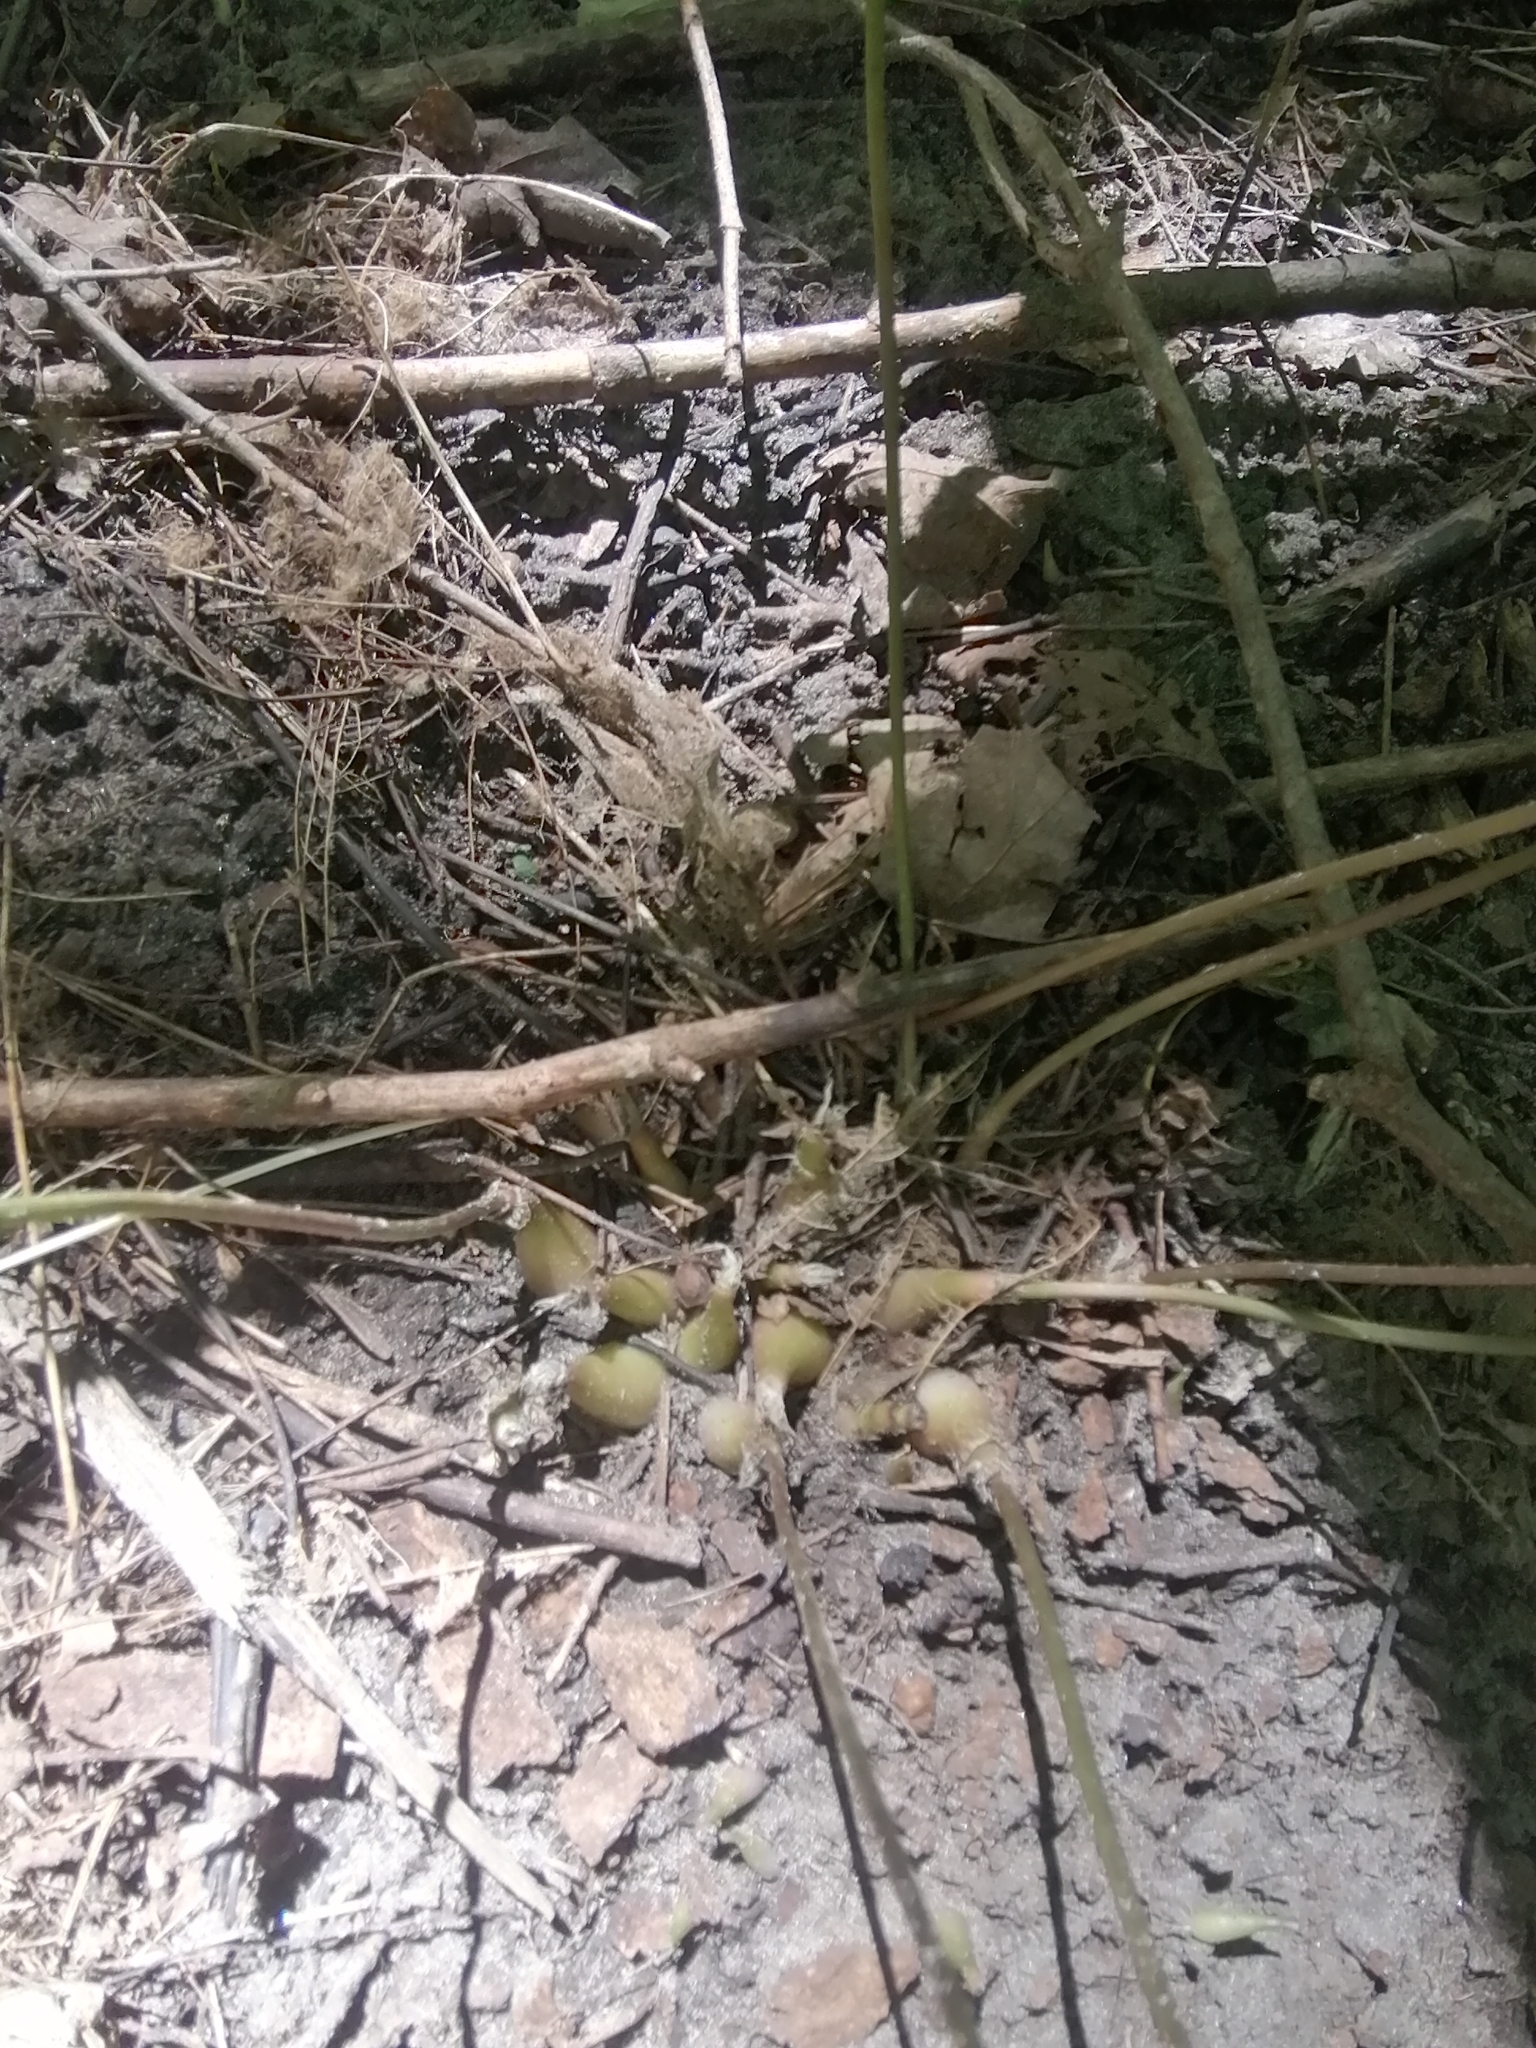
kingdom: Plantae
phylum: Tracheophyta
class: Liliopsida
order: Asparagales
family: Amaryllidaceae
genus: Allium
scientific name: Allium tricoccum
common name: Ramp
